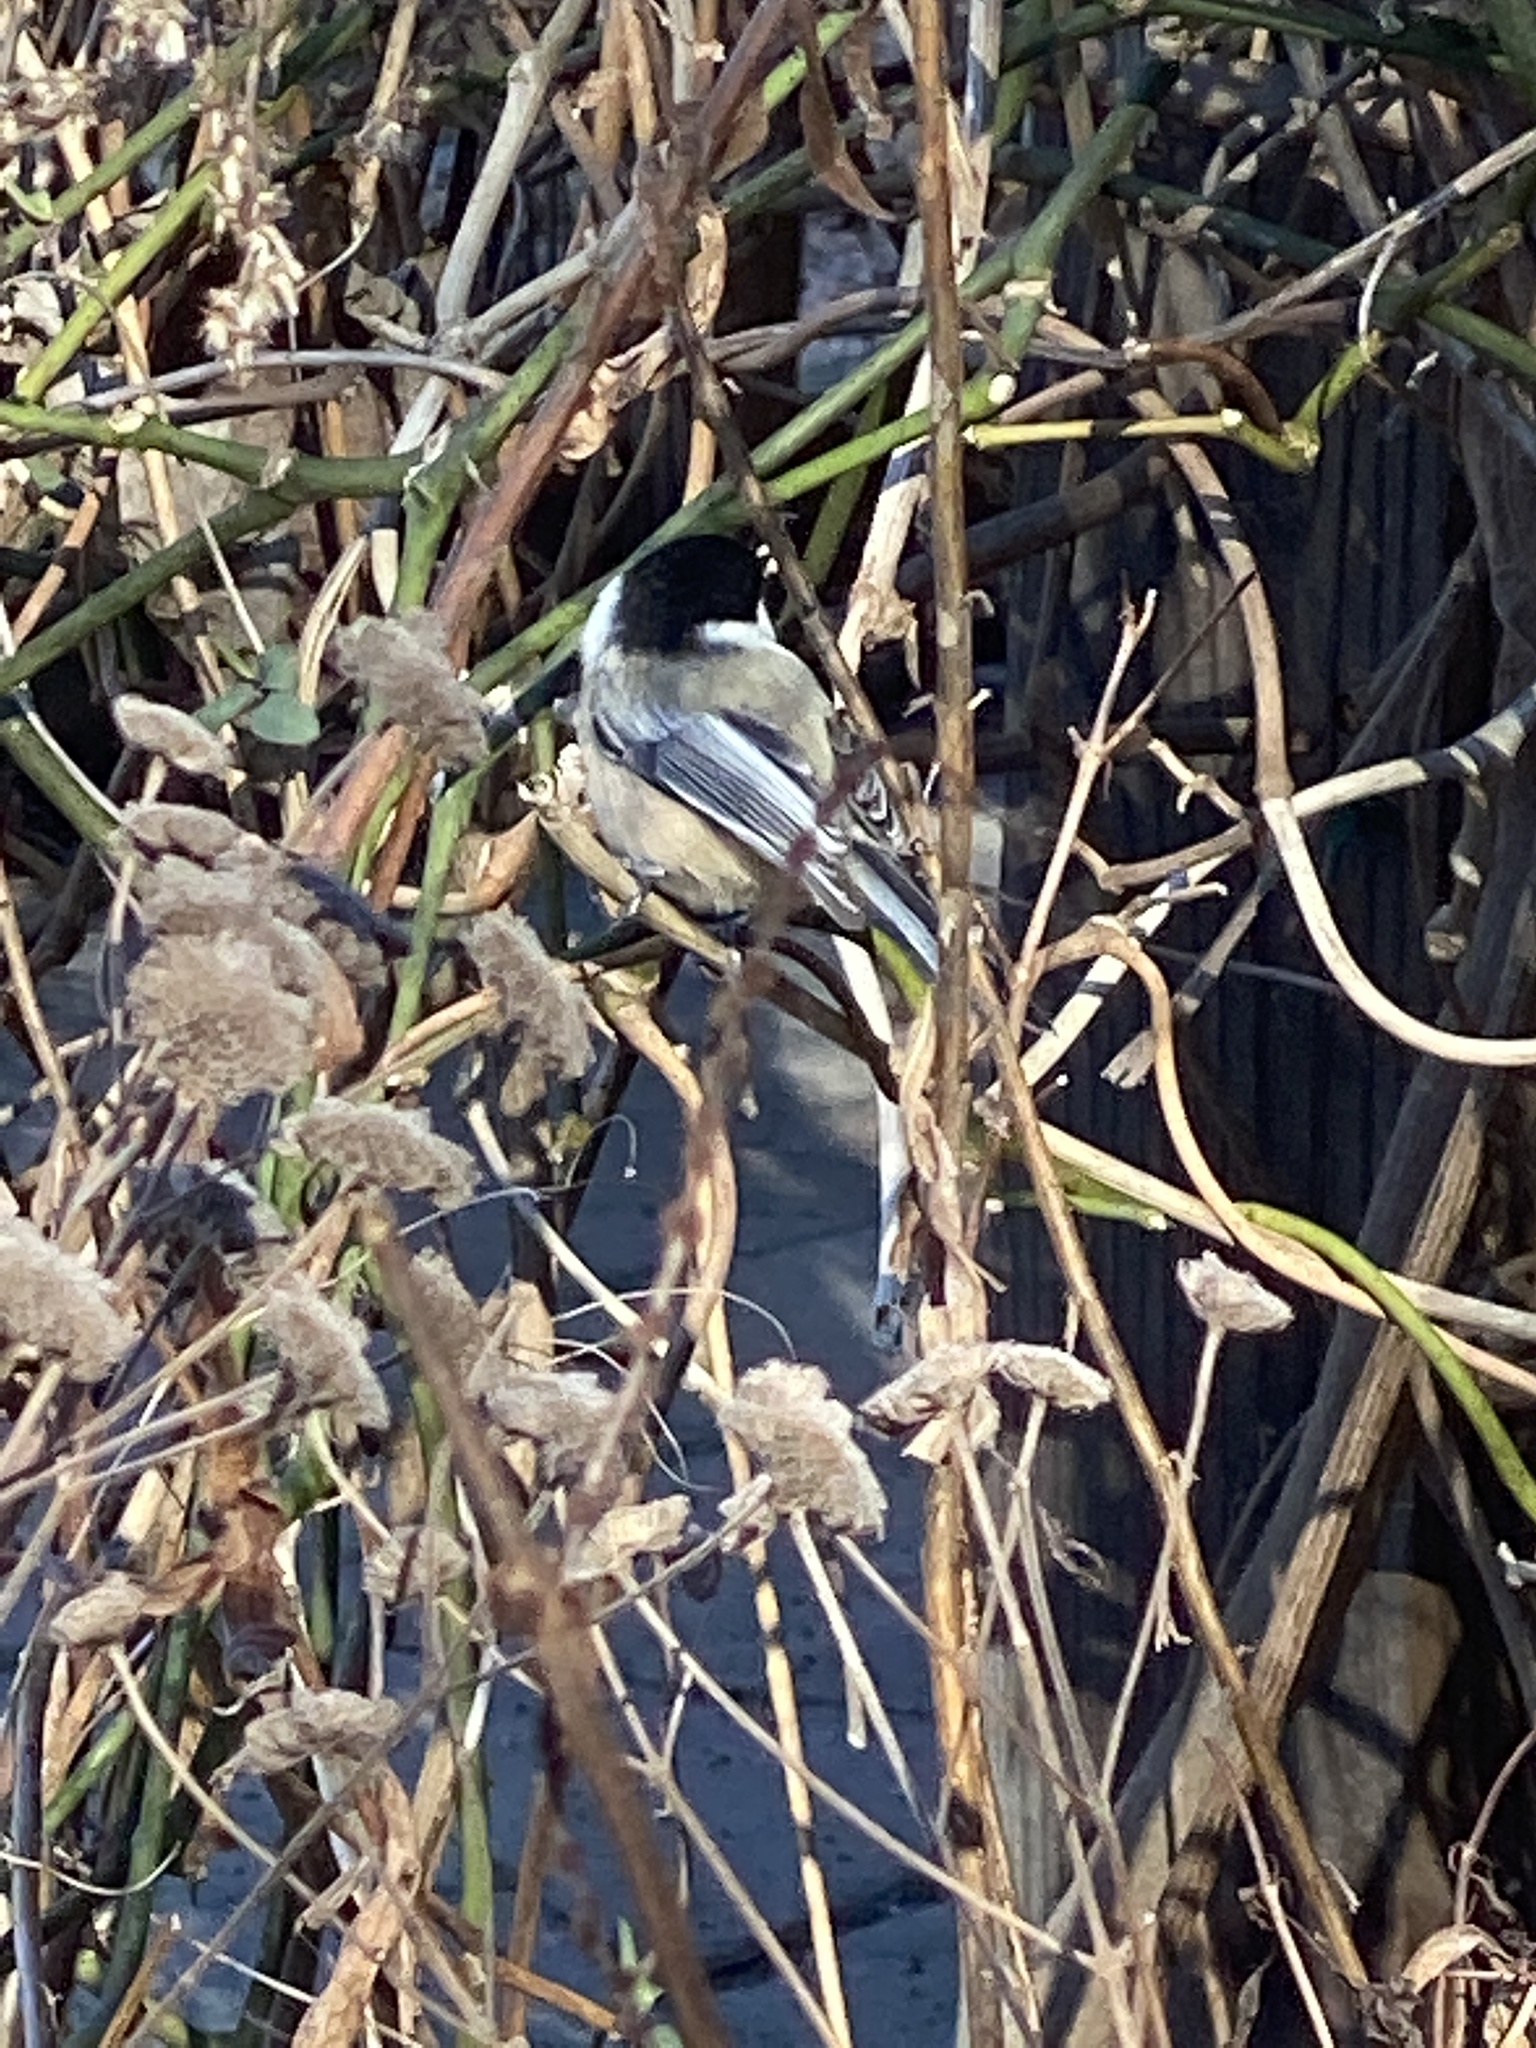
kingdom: Animalia
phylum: Chordata
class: Aves
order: Passeriformes
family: Paridae
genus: Poecile
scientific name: Poecile atricapillus
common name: Black-capped chickadee
